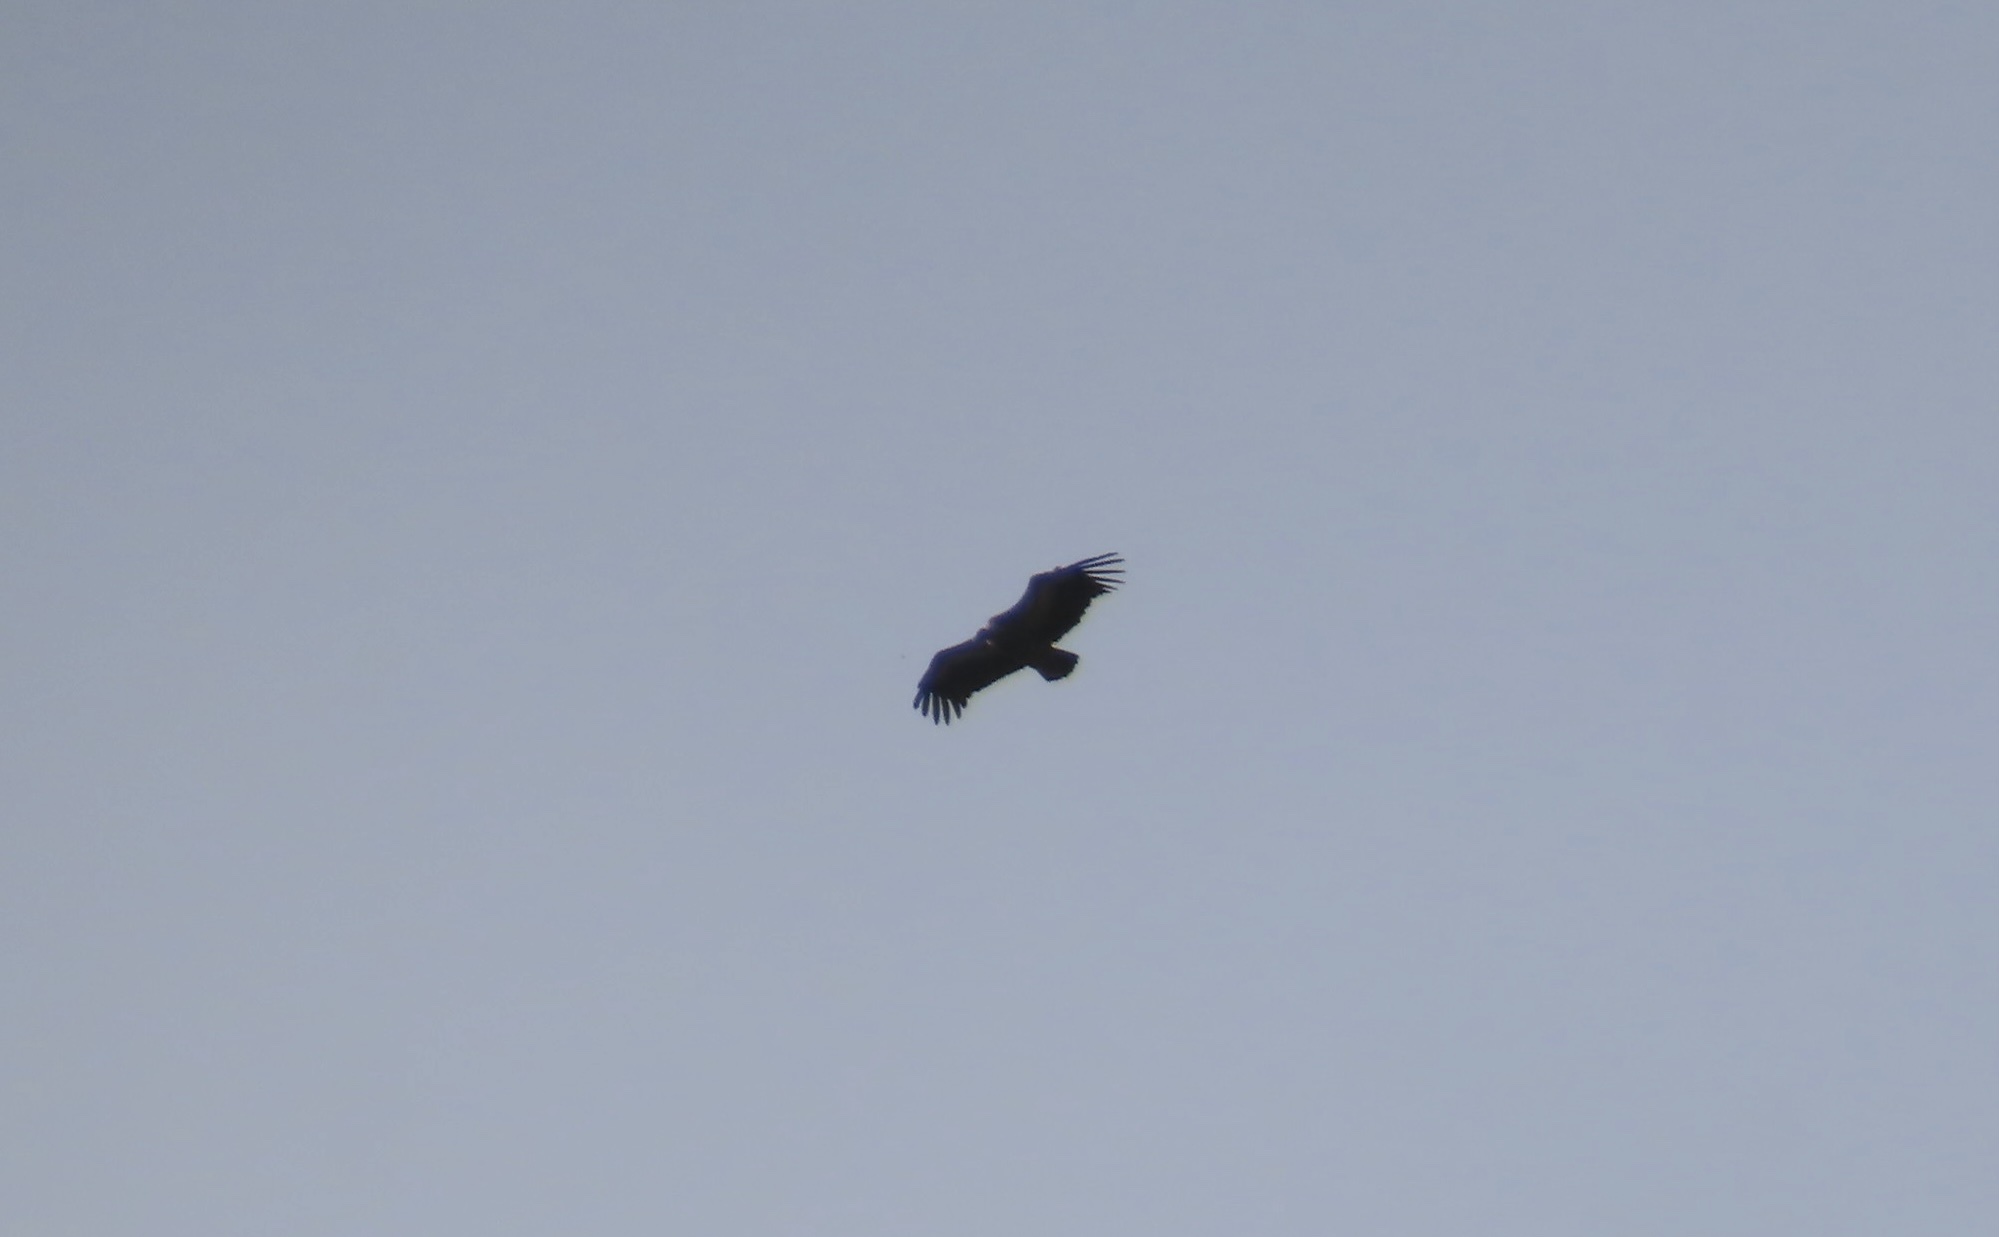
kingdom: Animalia
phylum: Chordata
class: Aves
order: Accipitriformes
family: Accipitridae
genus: Gyps
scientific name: Gyps fulvus
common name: Griffon vulture
